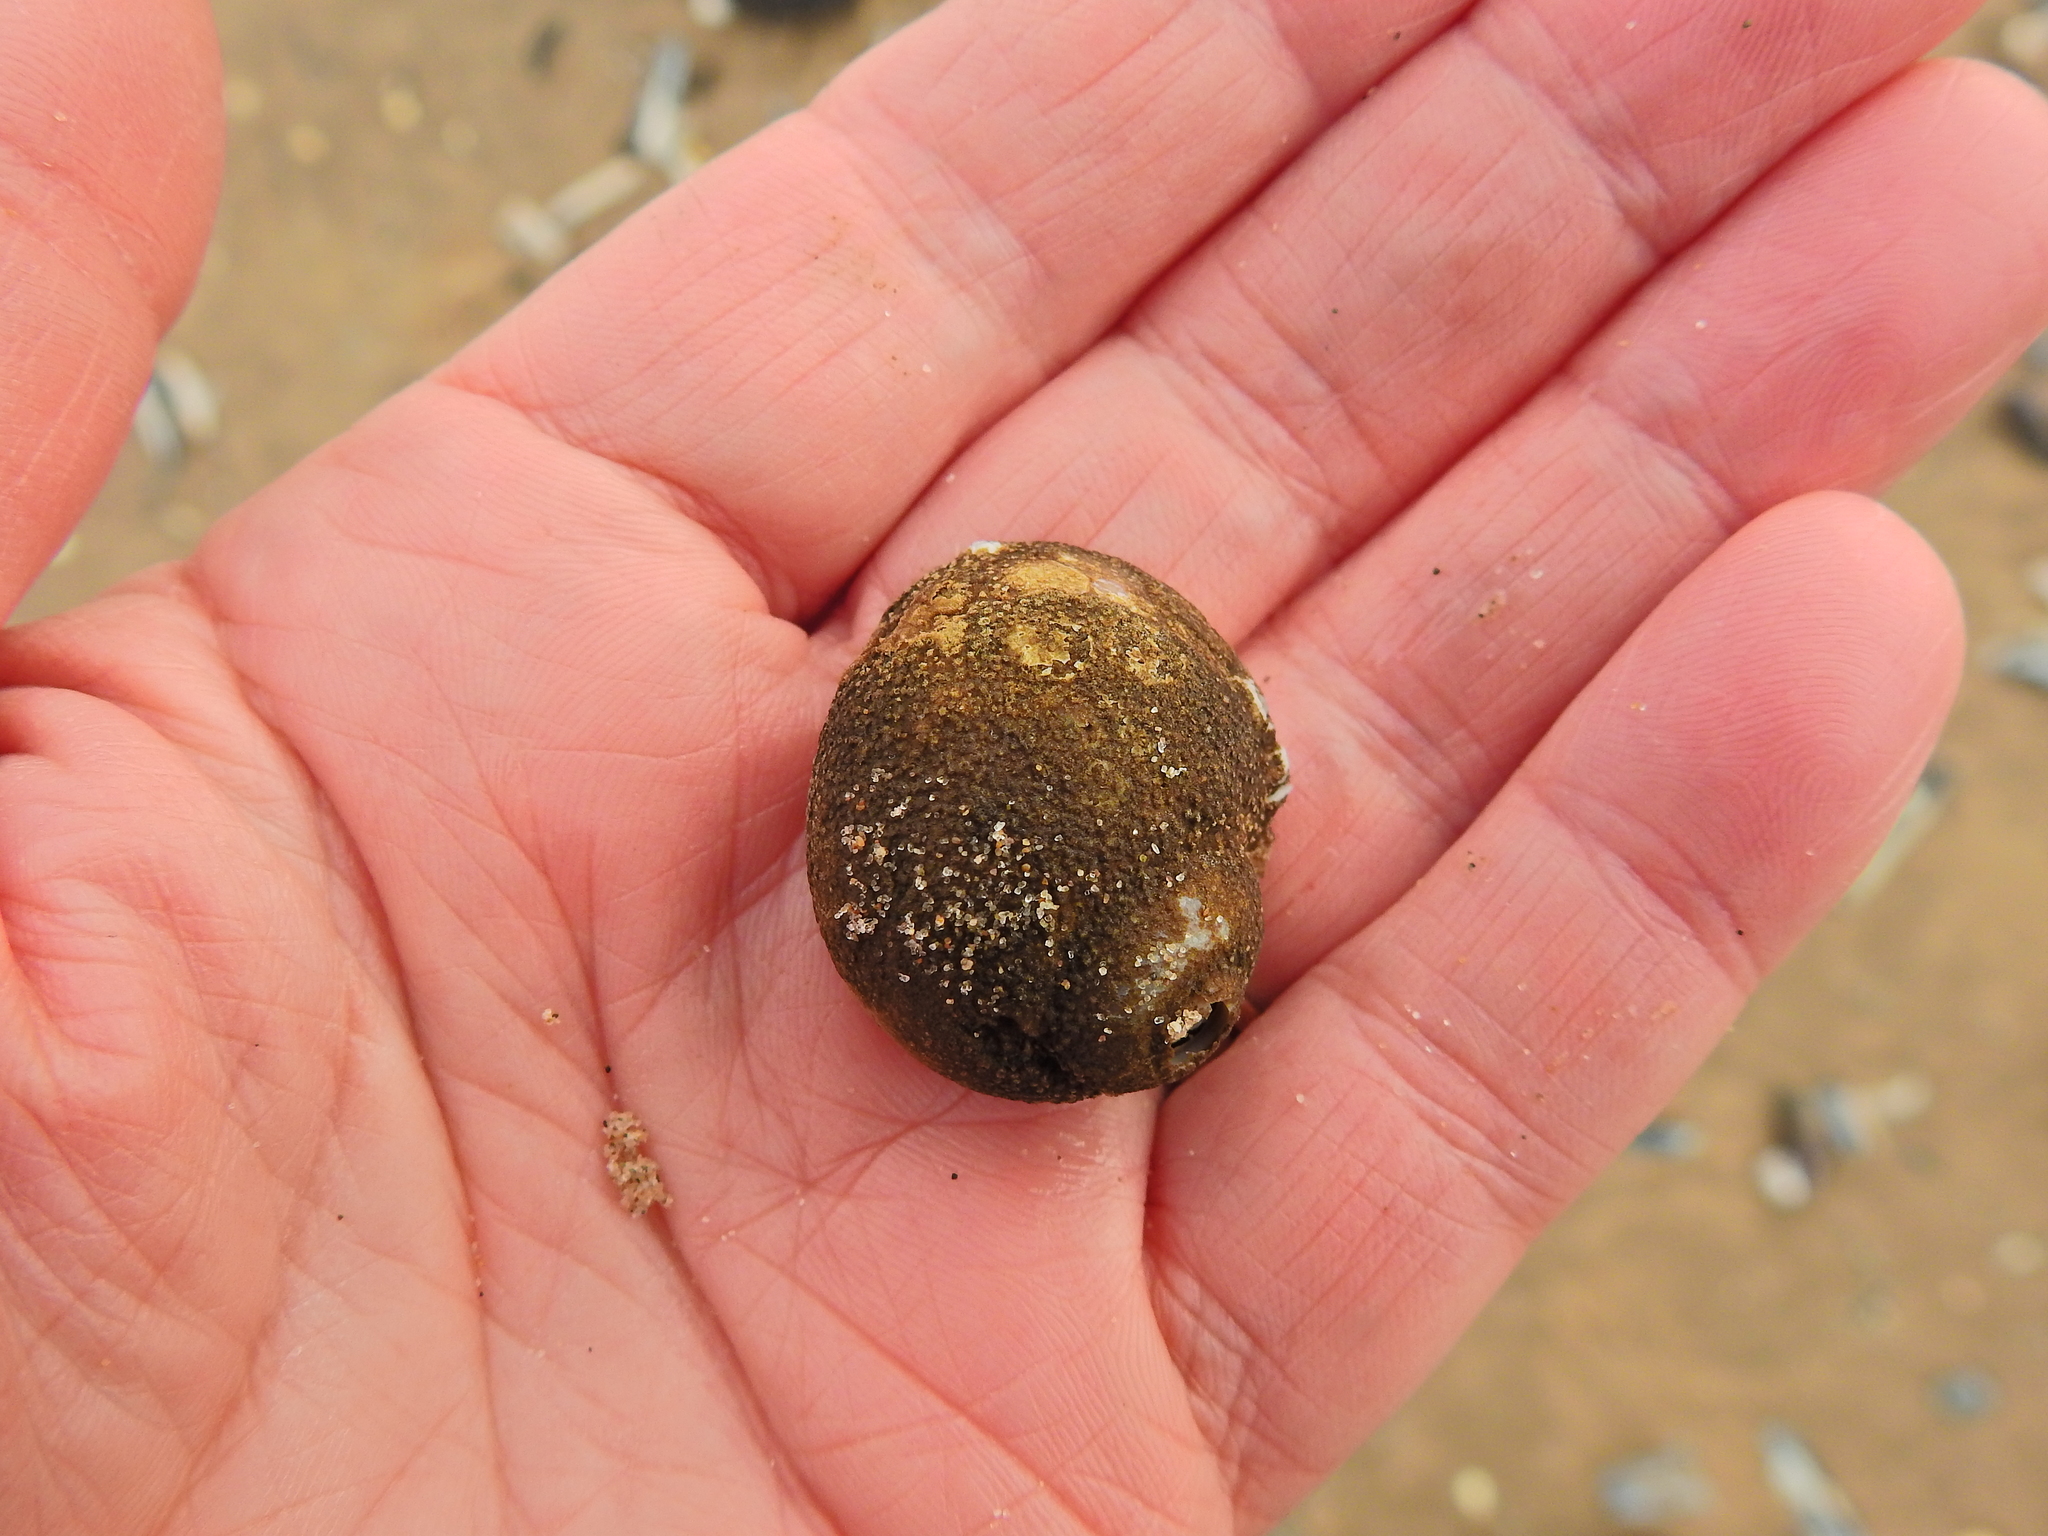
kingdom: Animalia
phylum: Cnidaria
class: Hydrozoa
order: Anthoathecata
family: Hydractiniidae
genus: Hydractinia
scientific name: Hydractinia echinata
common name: Rough hydroid
